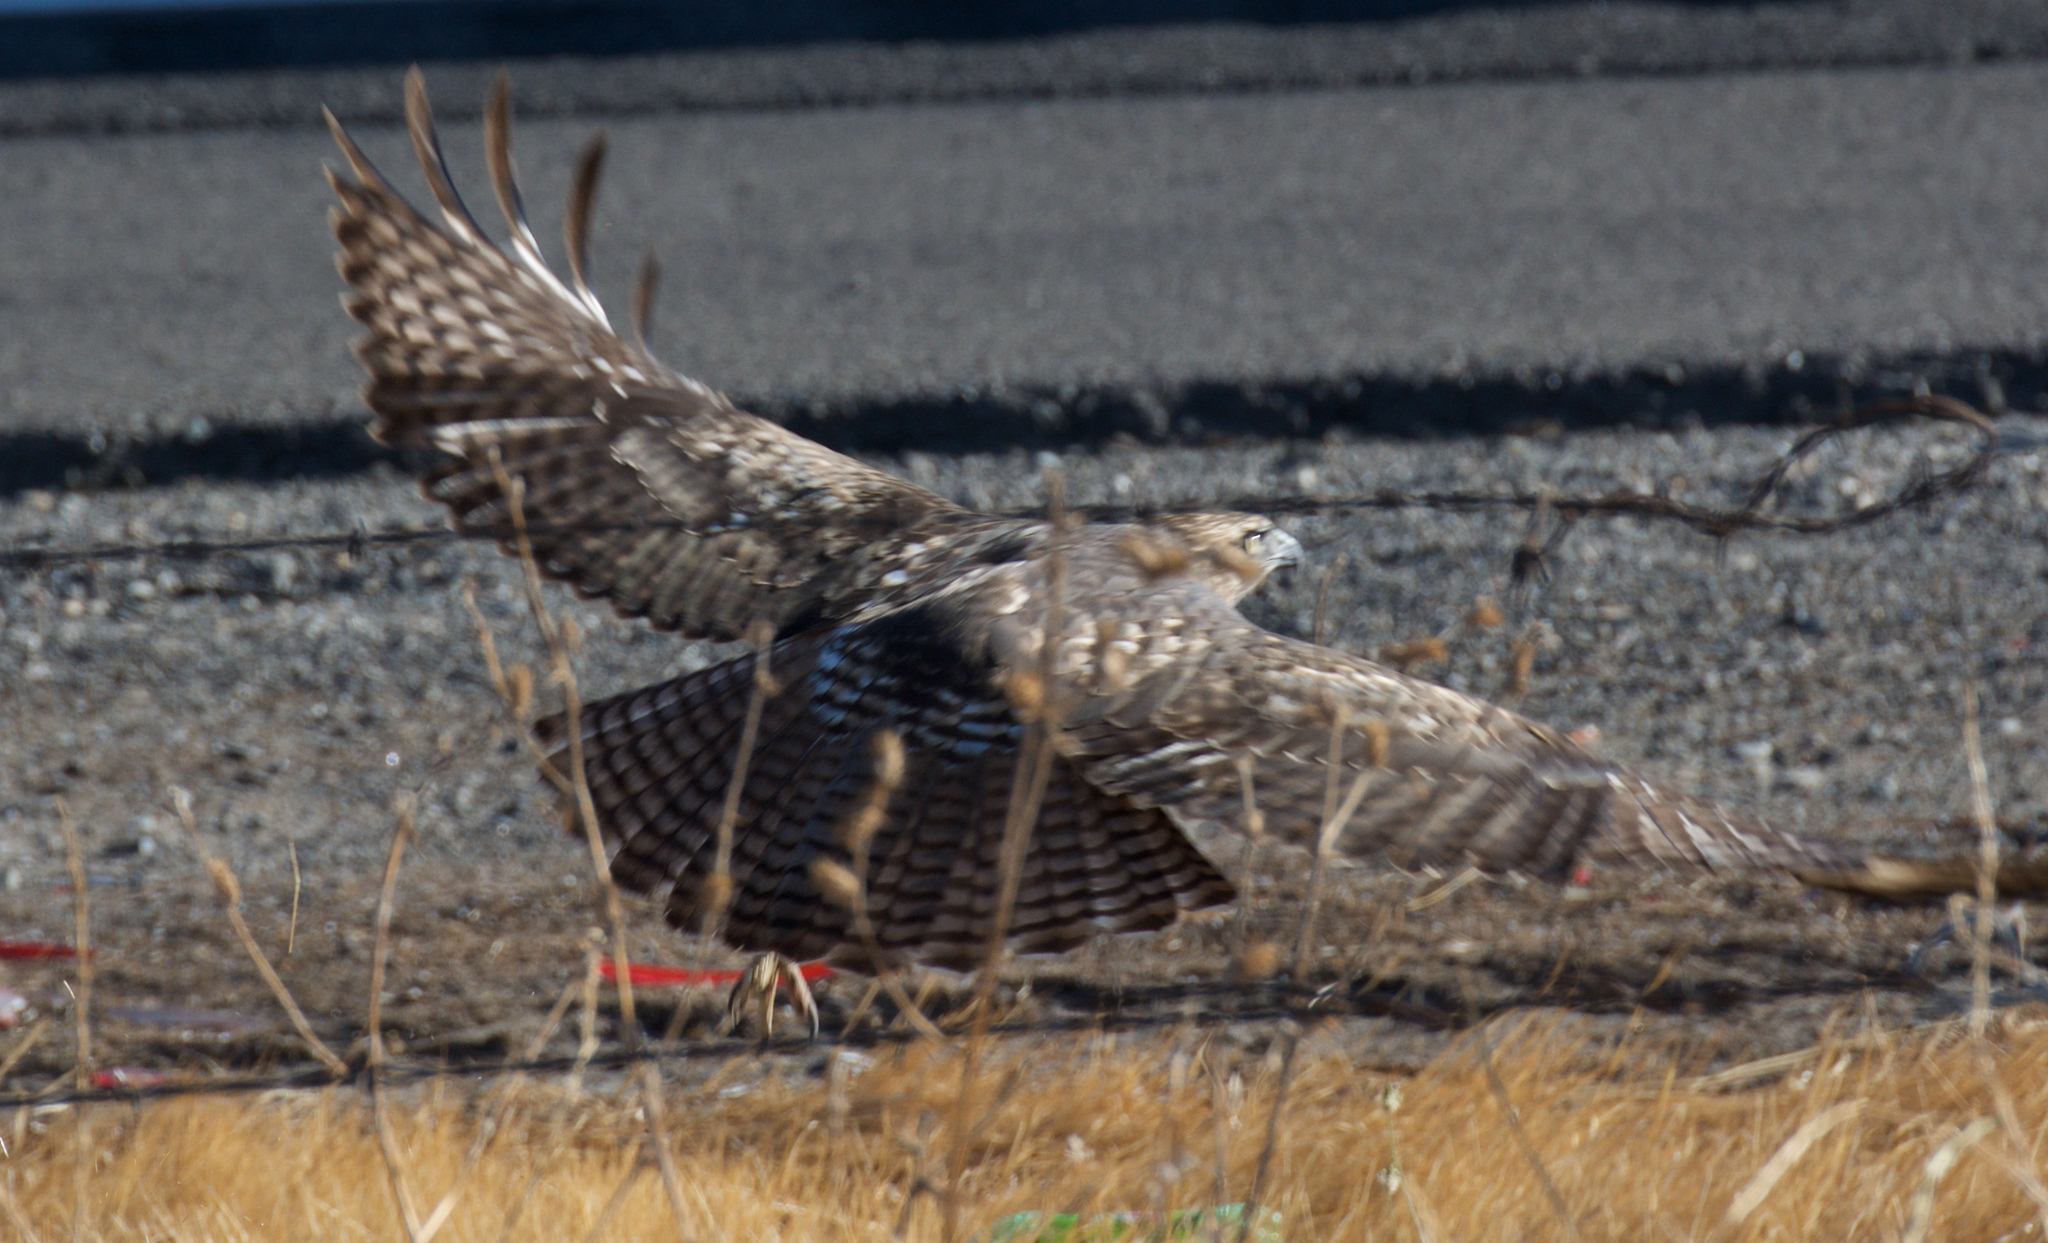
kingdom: Animalia
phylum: Chordata
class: Aves
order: Accipitriformes
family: Accipitridae
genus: Buteo
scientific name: Buteo jamaicensis
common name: Red-tailed hawk
